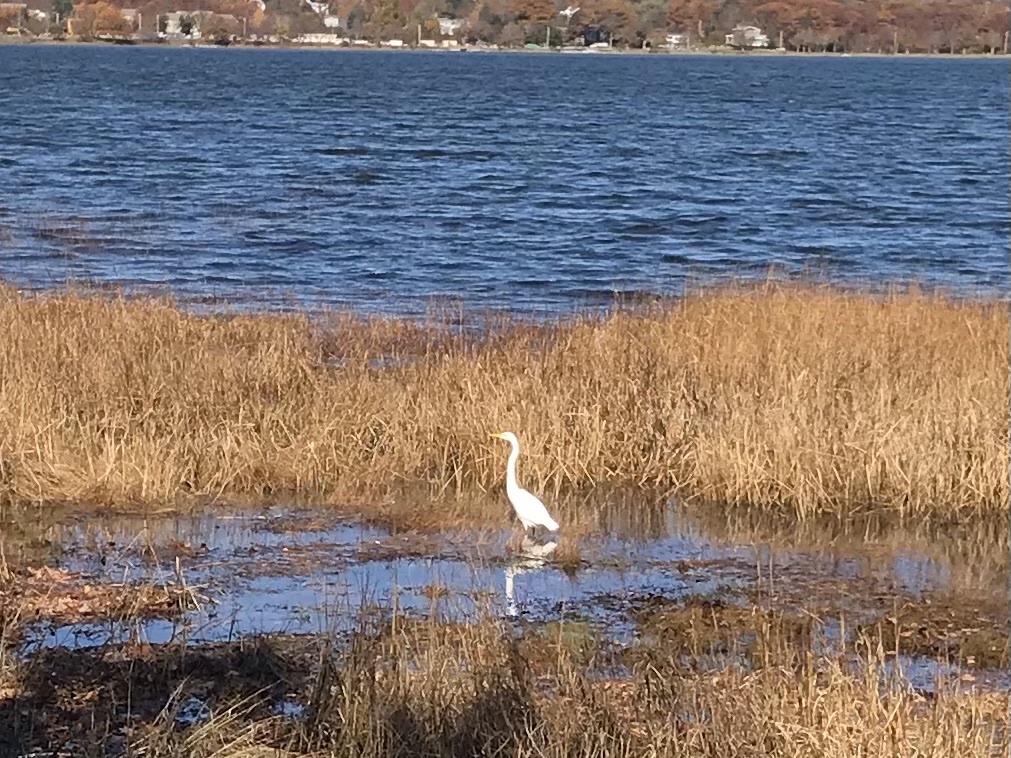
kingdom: Animalia
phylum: Chordata
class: Aves
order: Pelecaniformes
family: Ardeidae
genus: Ardea
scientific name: Ardea alba
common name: Great egret
